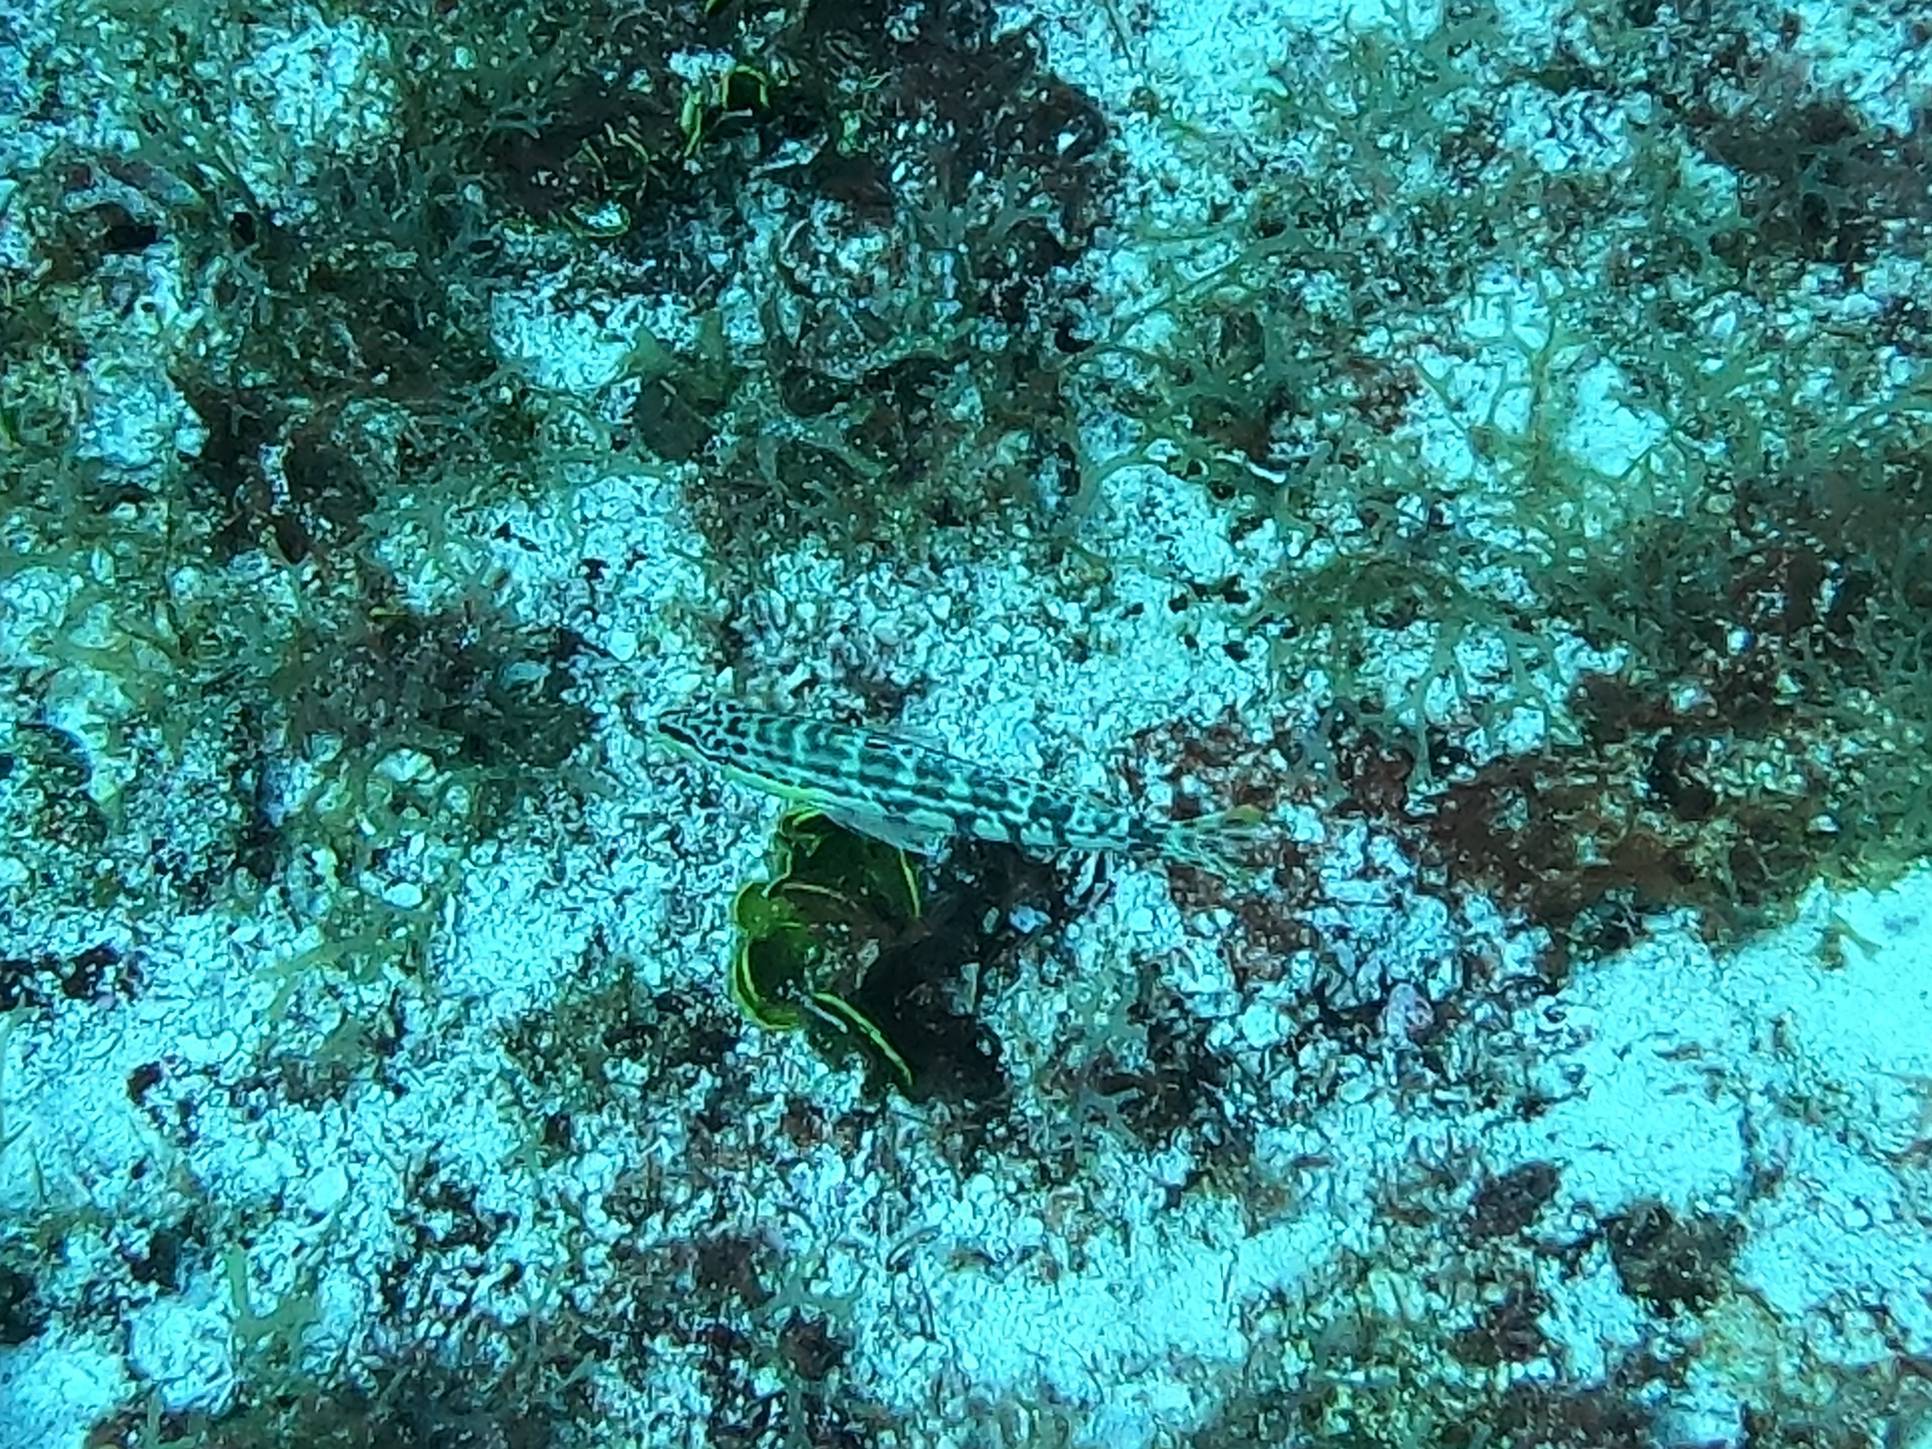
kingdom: Animalia
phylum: Chordata
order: Perciformes
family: Serranidae
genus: Serranus
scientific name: Serranus tigrinus
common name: Harlequin bass
